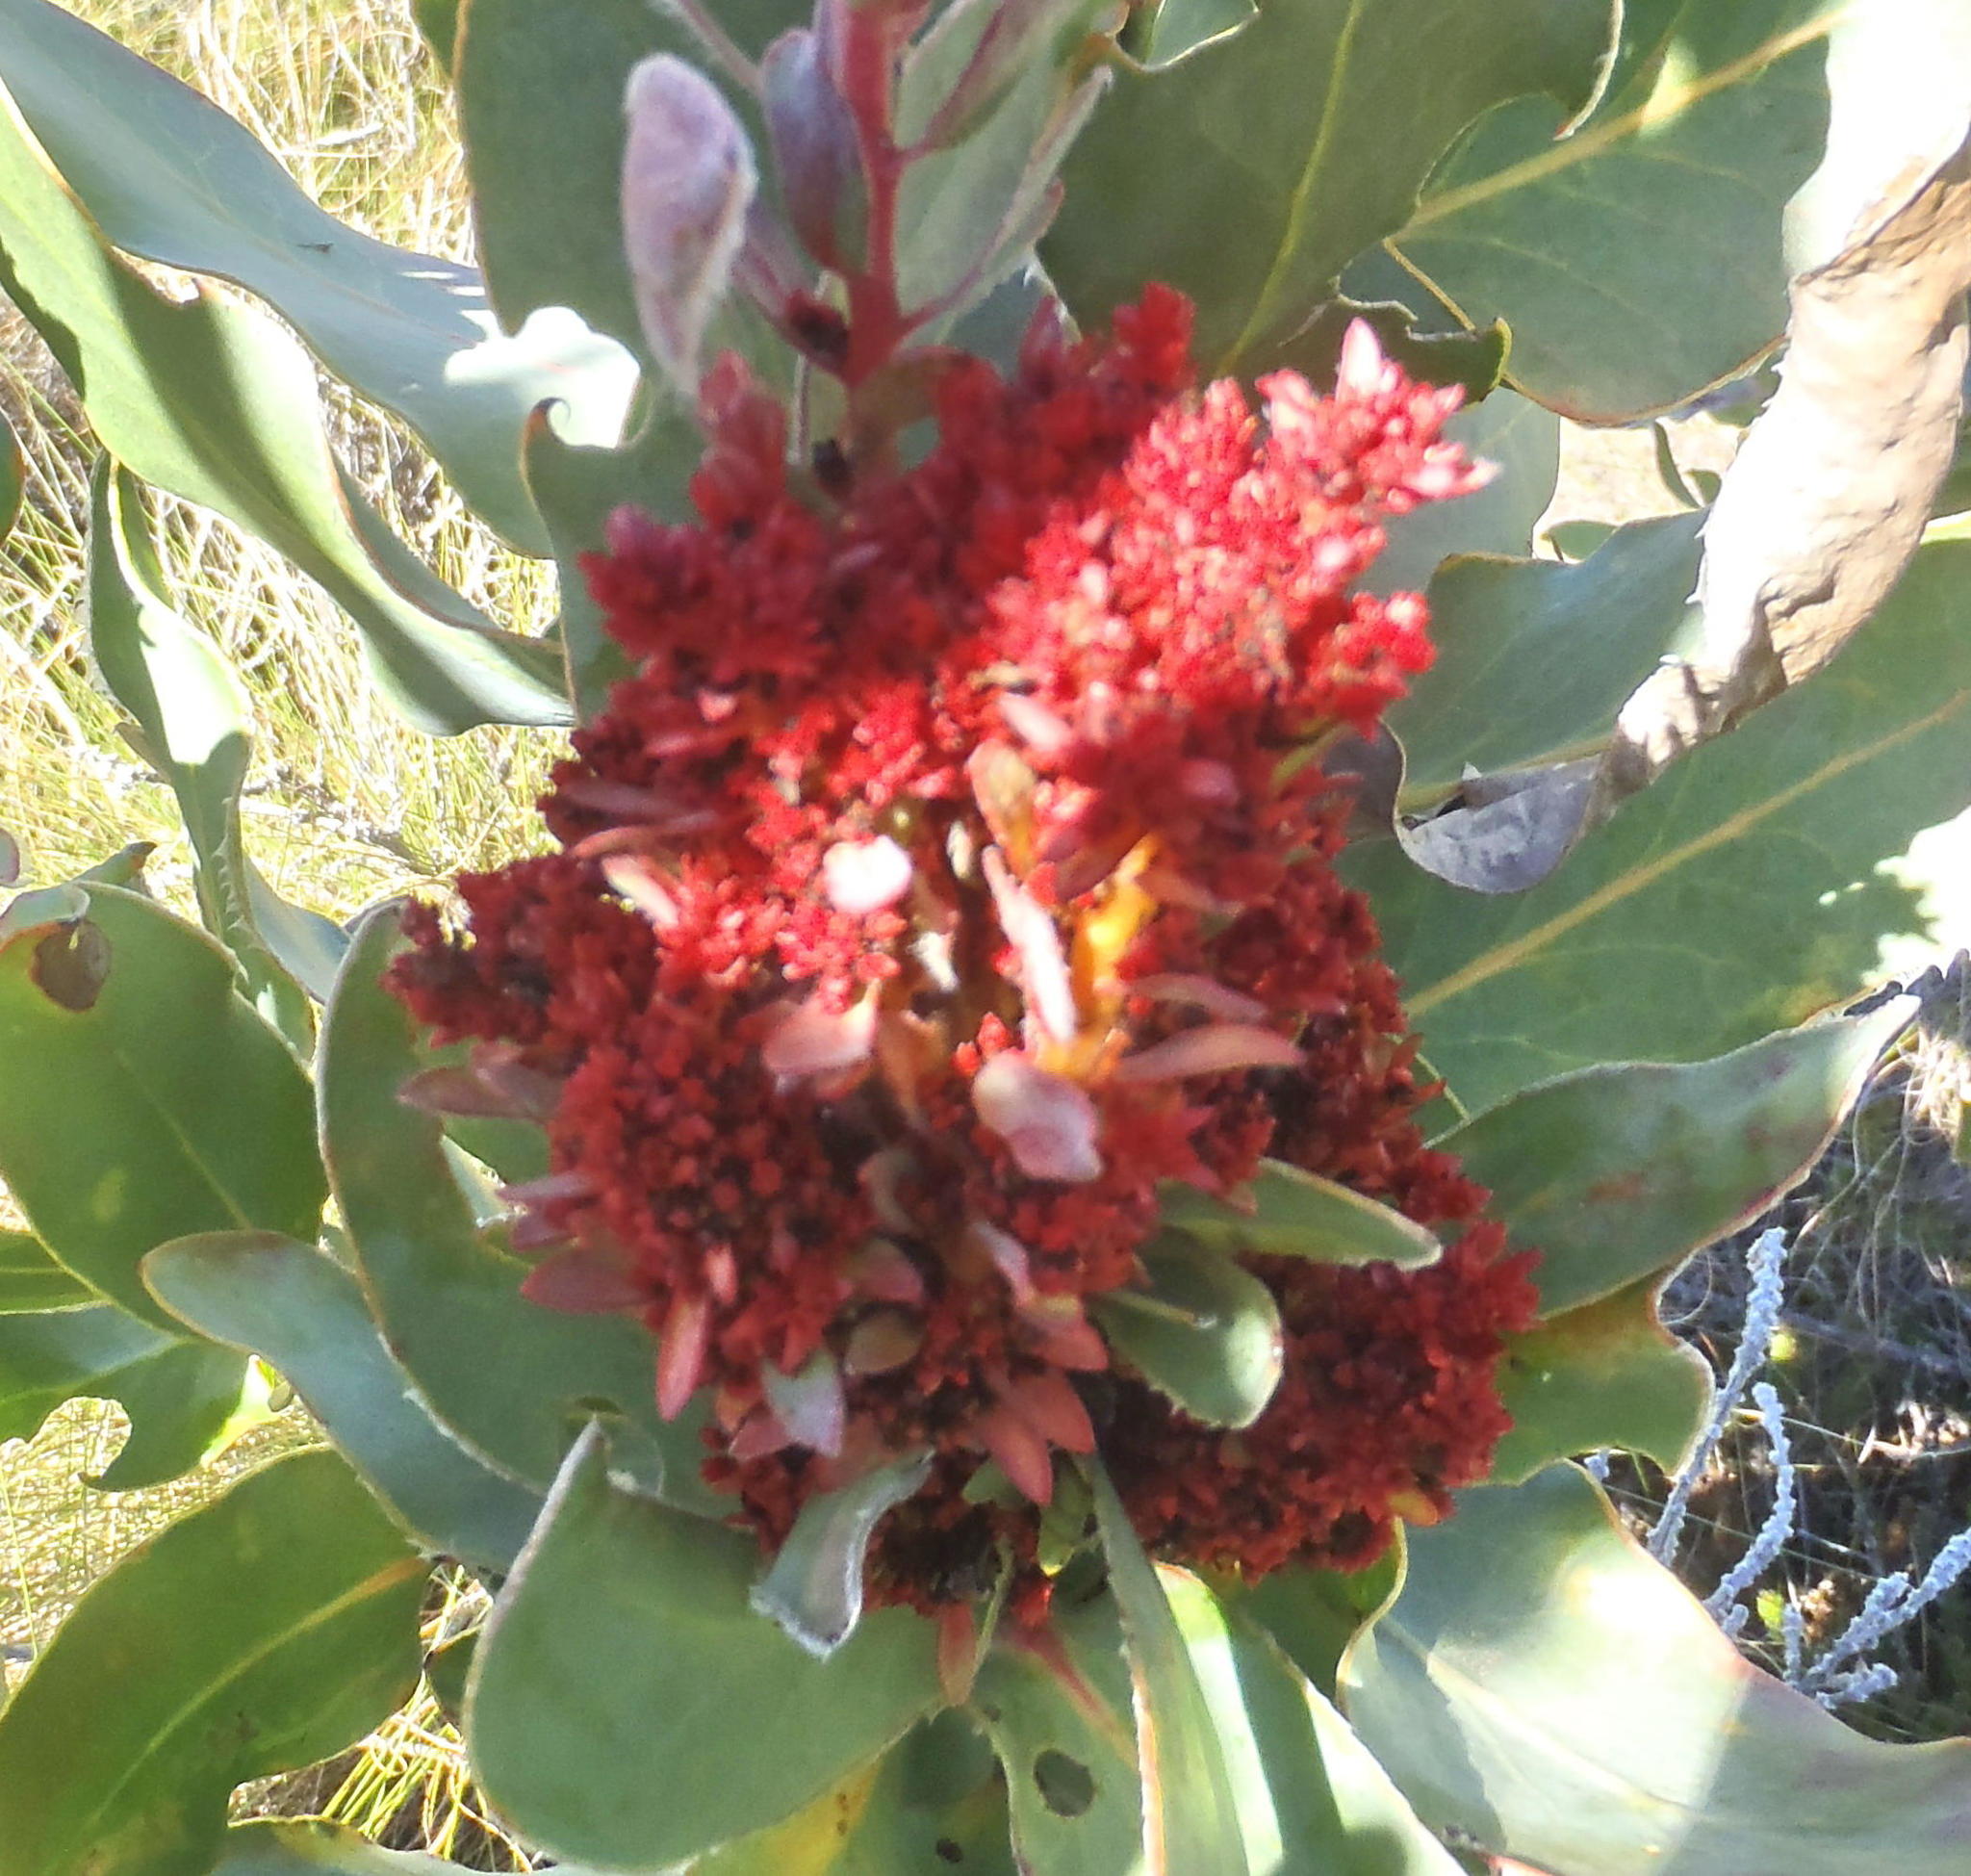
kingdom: Bacteria
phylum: Firmicutes
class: Bacilli
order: Acholeplasmatales
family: Acholeplasmataceae
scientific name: Acholeplasmataceae
